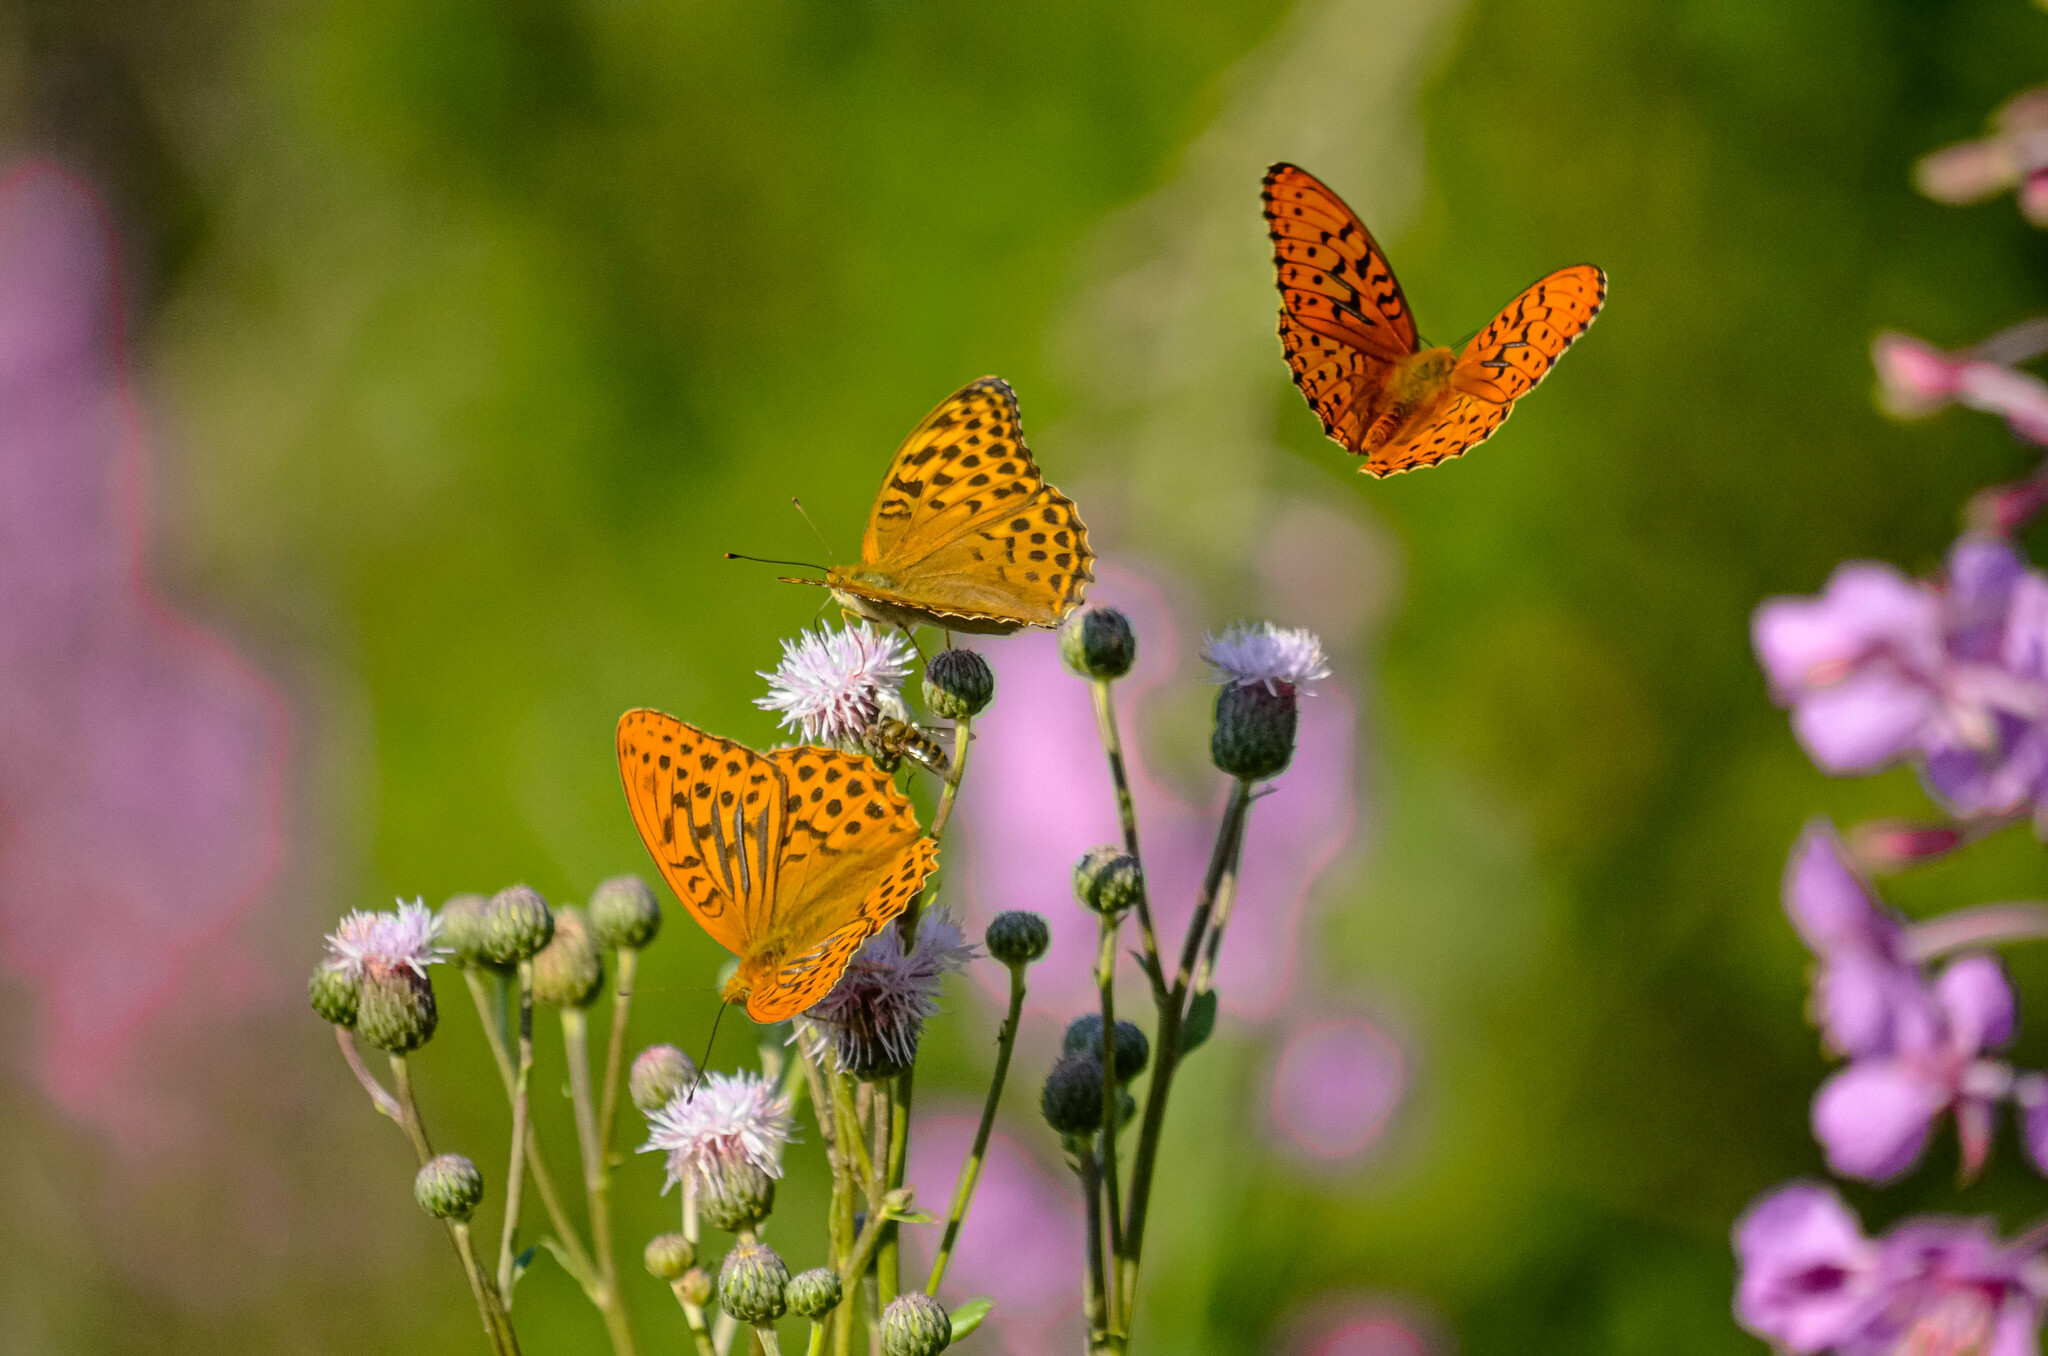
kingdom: Animalia
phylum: Arthropoda
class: Insecta
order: Lepidoptera
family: Nymphalidae
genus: Argynnis
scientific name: Argynnis paphia
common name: Silver-washed fritillary
